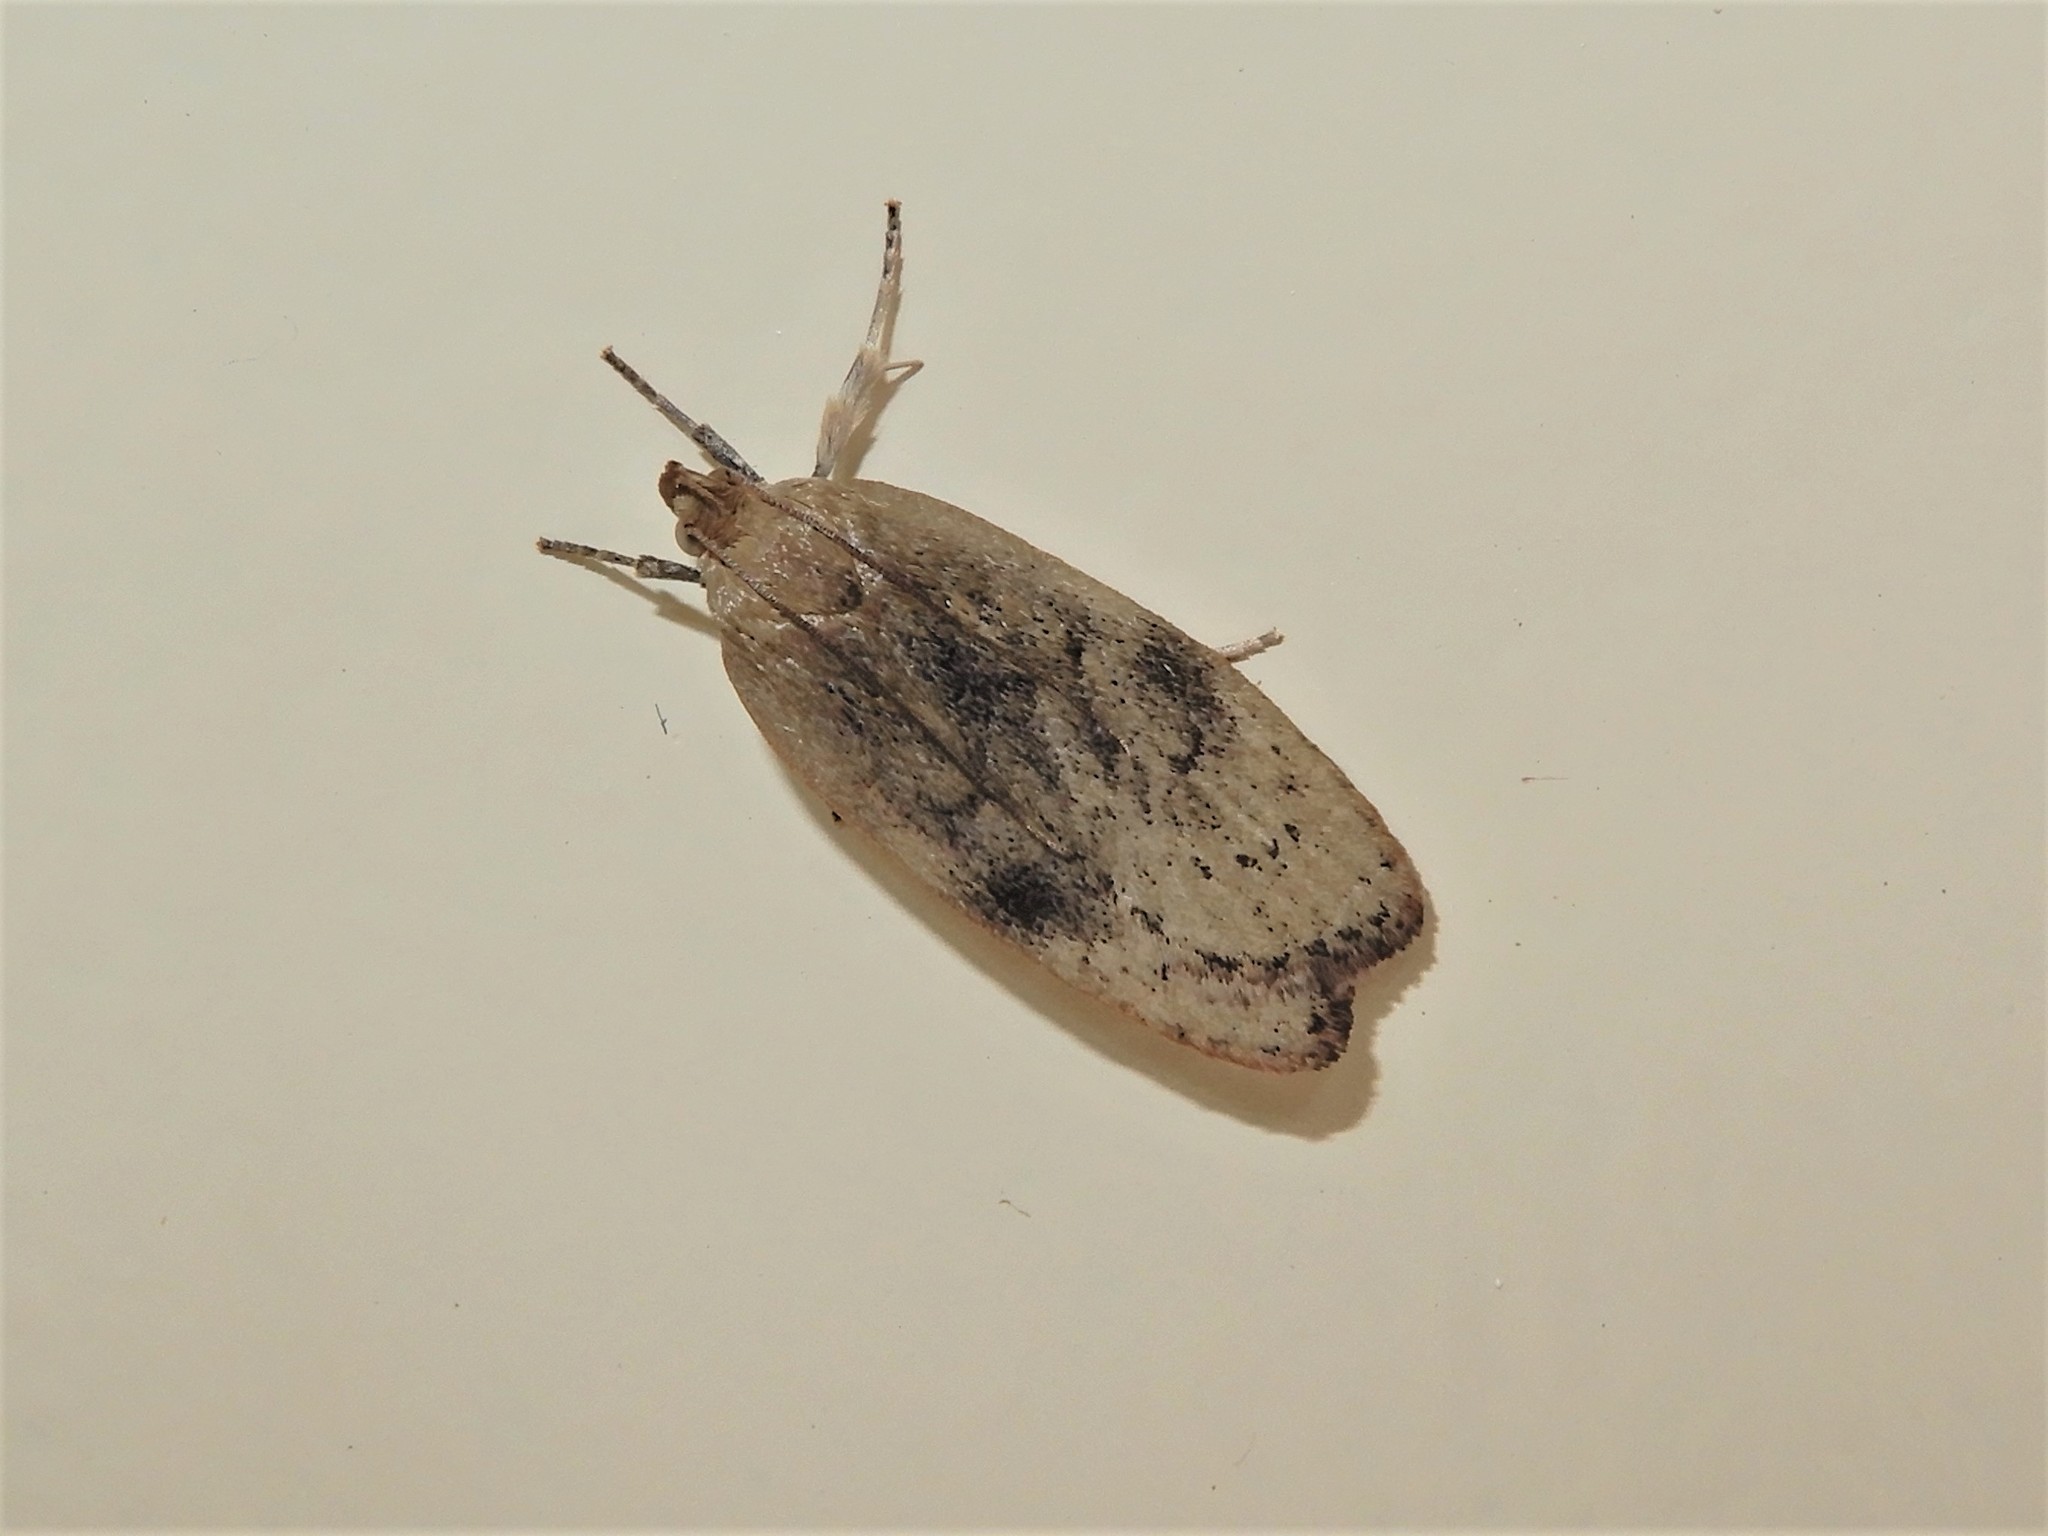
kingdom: Animalia
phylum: Arthropoda
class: Insecta
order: Lepidoptera
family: Depressariidae
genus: Phaeosaces
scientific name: Phaeosaces coarctatella
